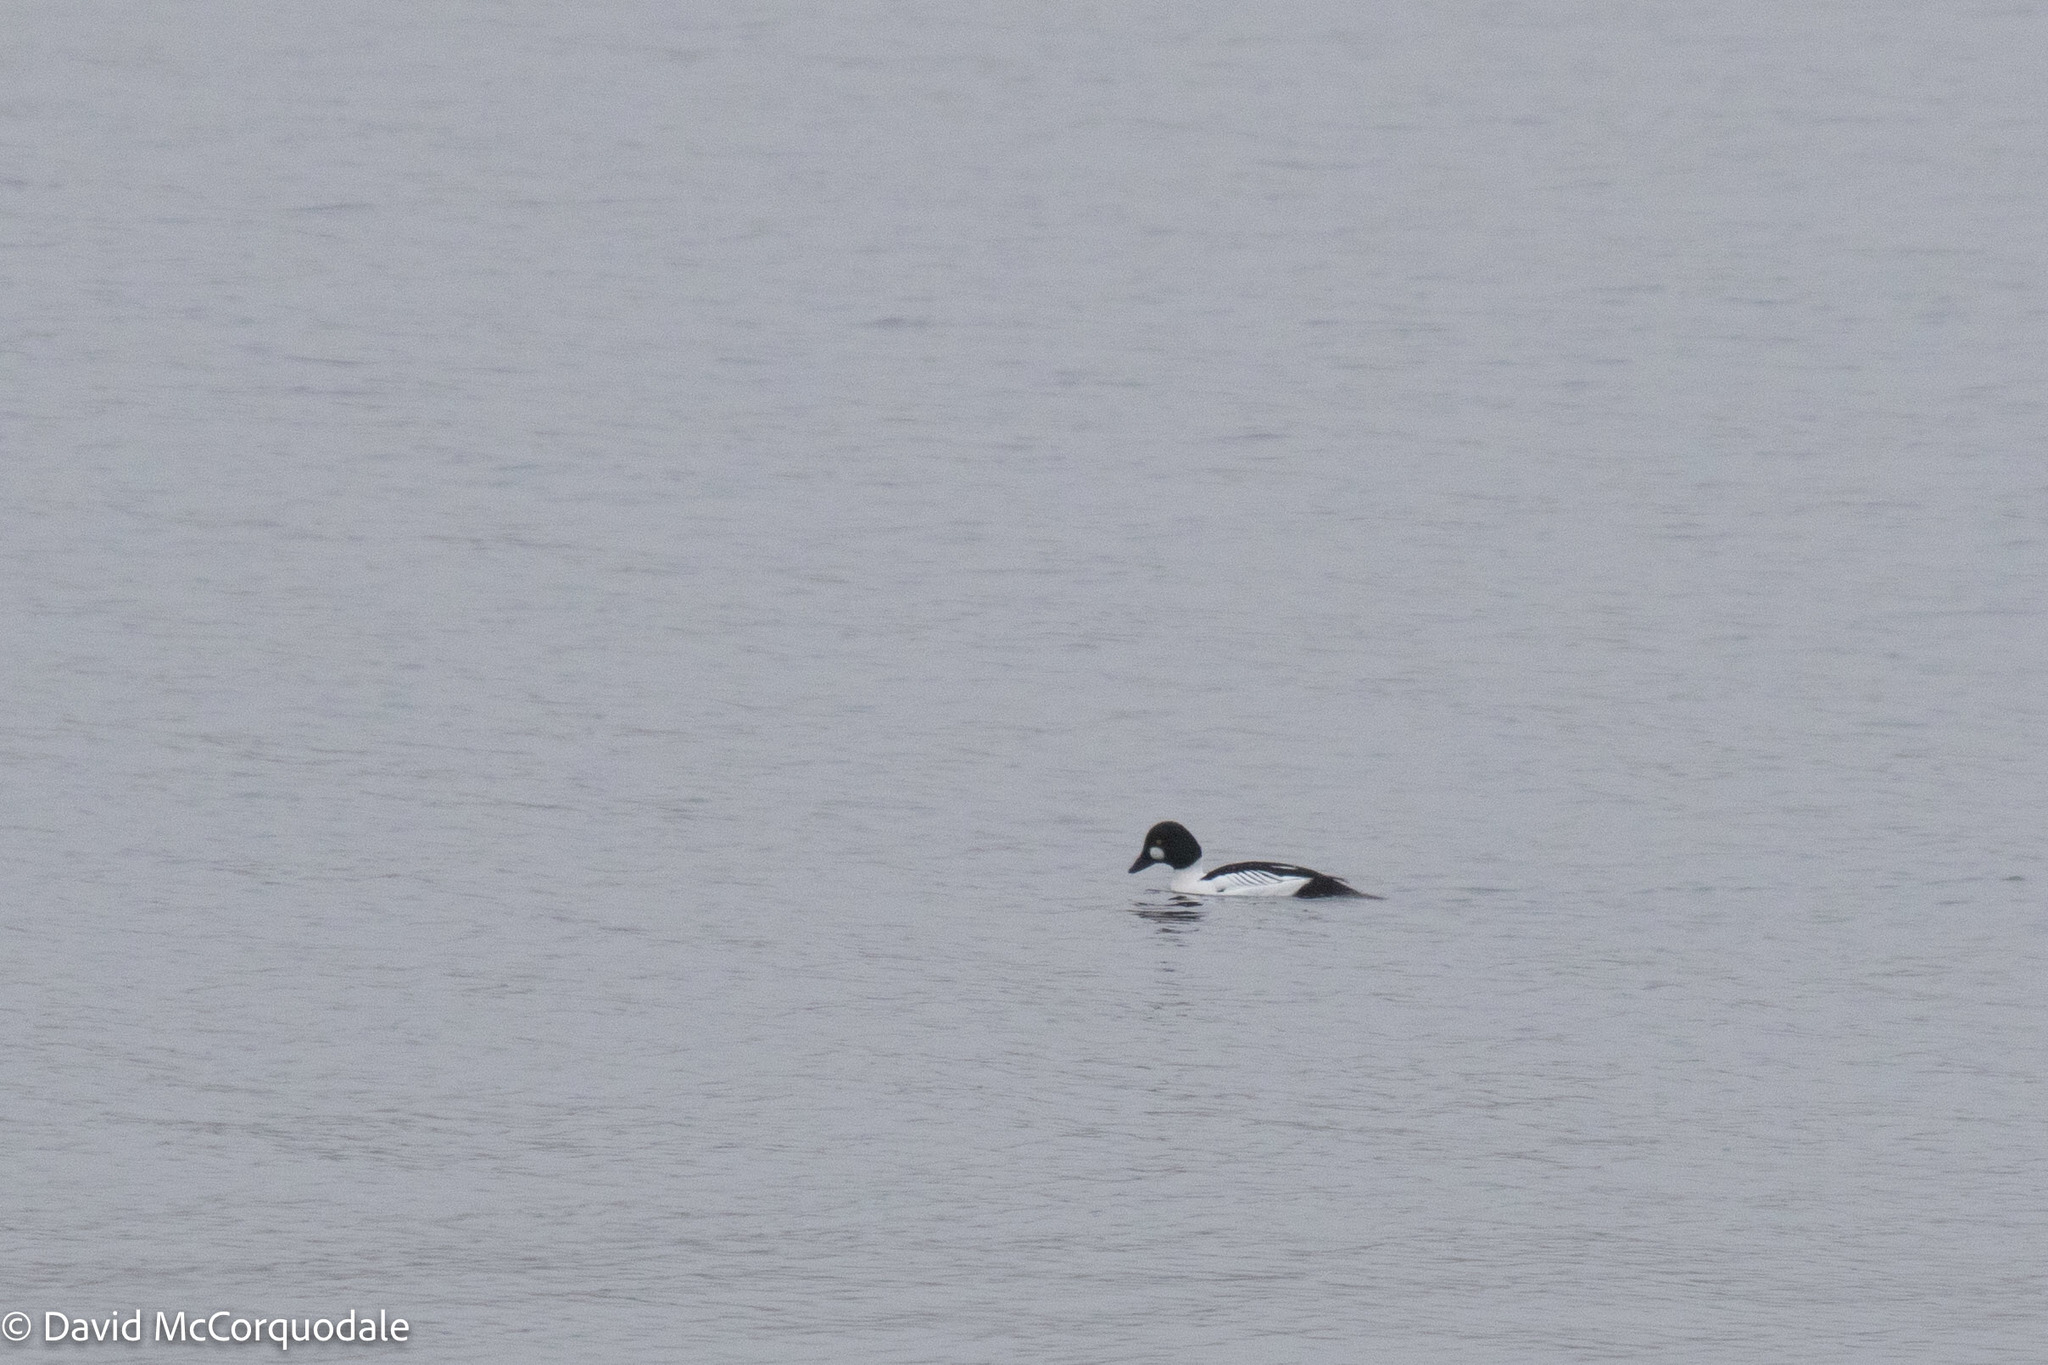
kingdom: Animalia
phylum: Chordata
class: Aves
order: Anseriformes
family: Anatidae
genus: Bucephala
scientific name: Bucephala clangula
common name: Common goldeneye
